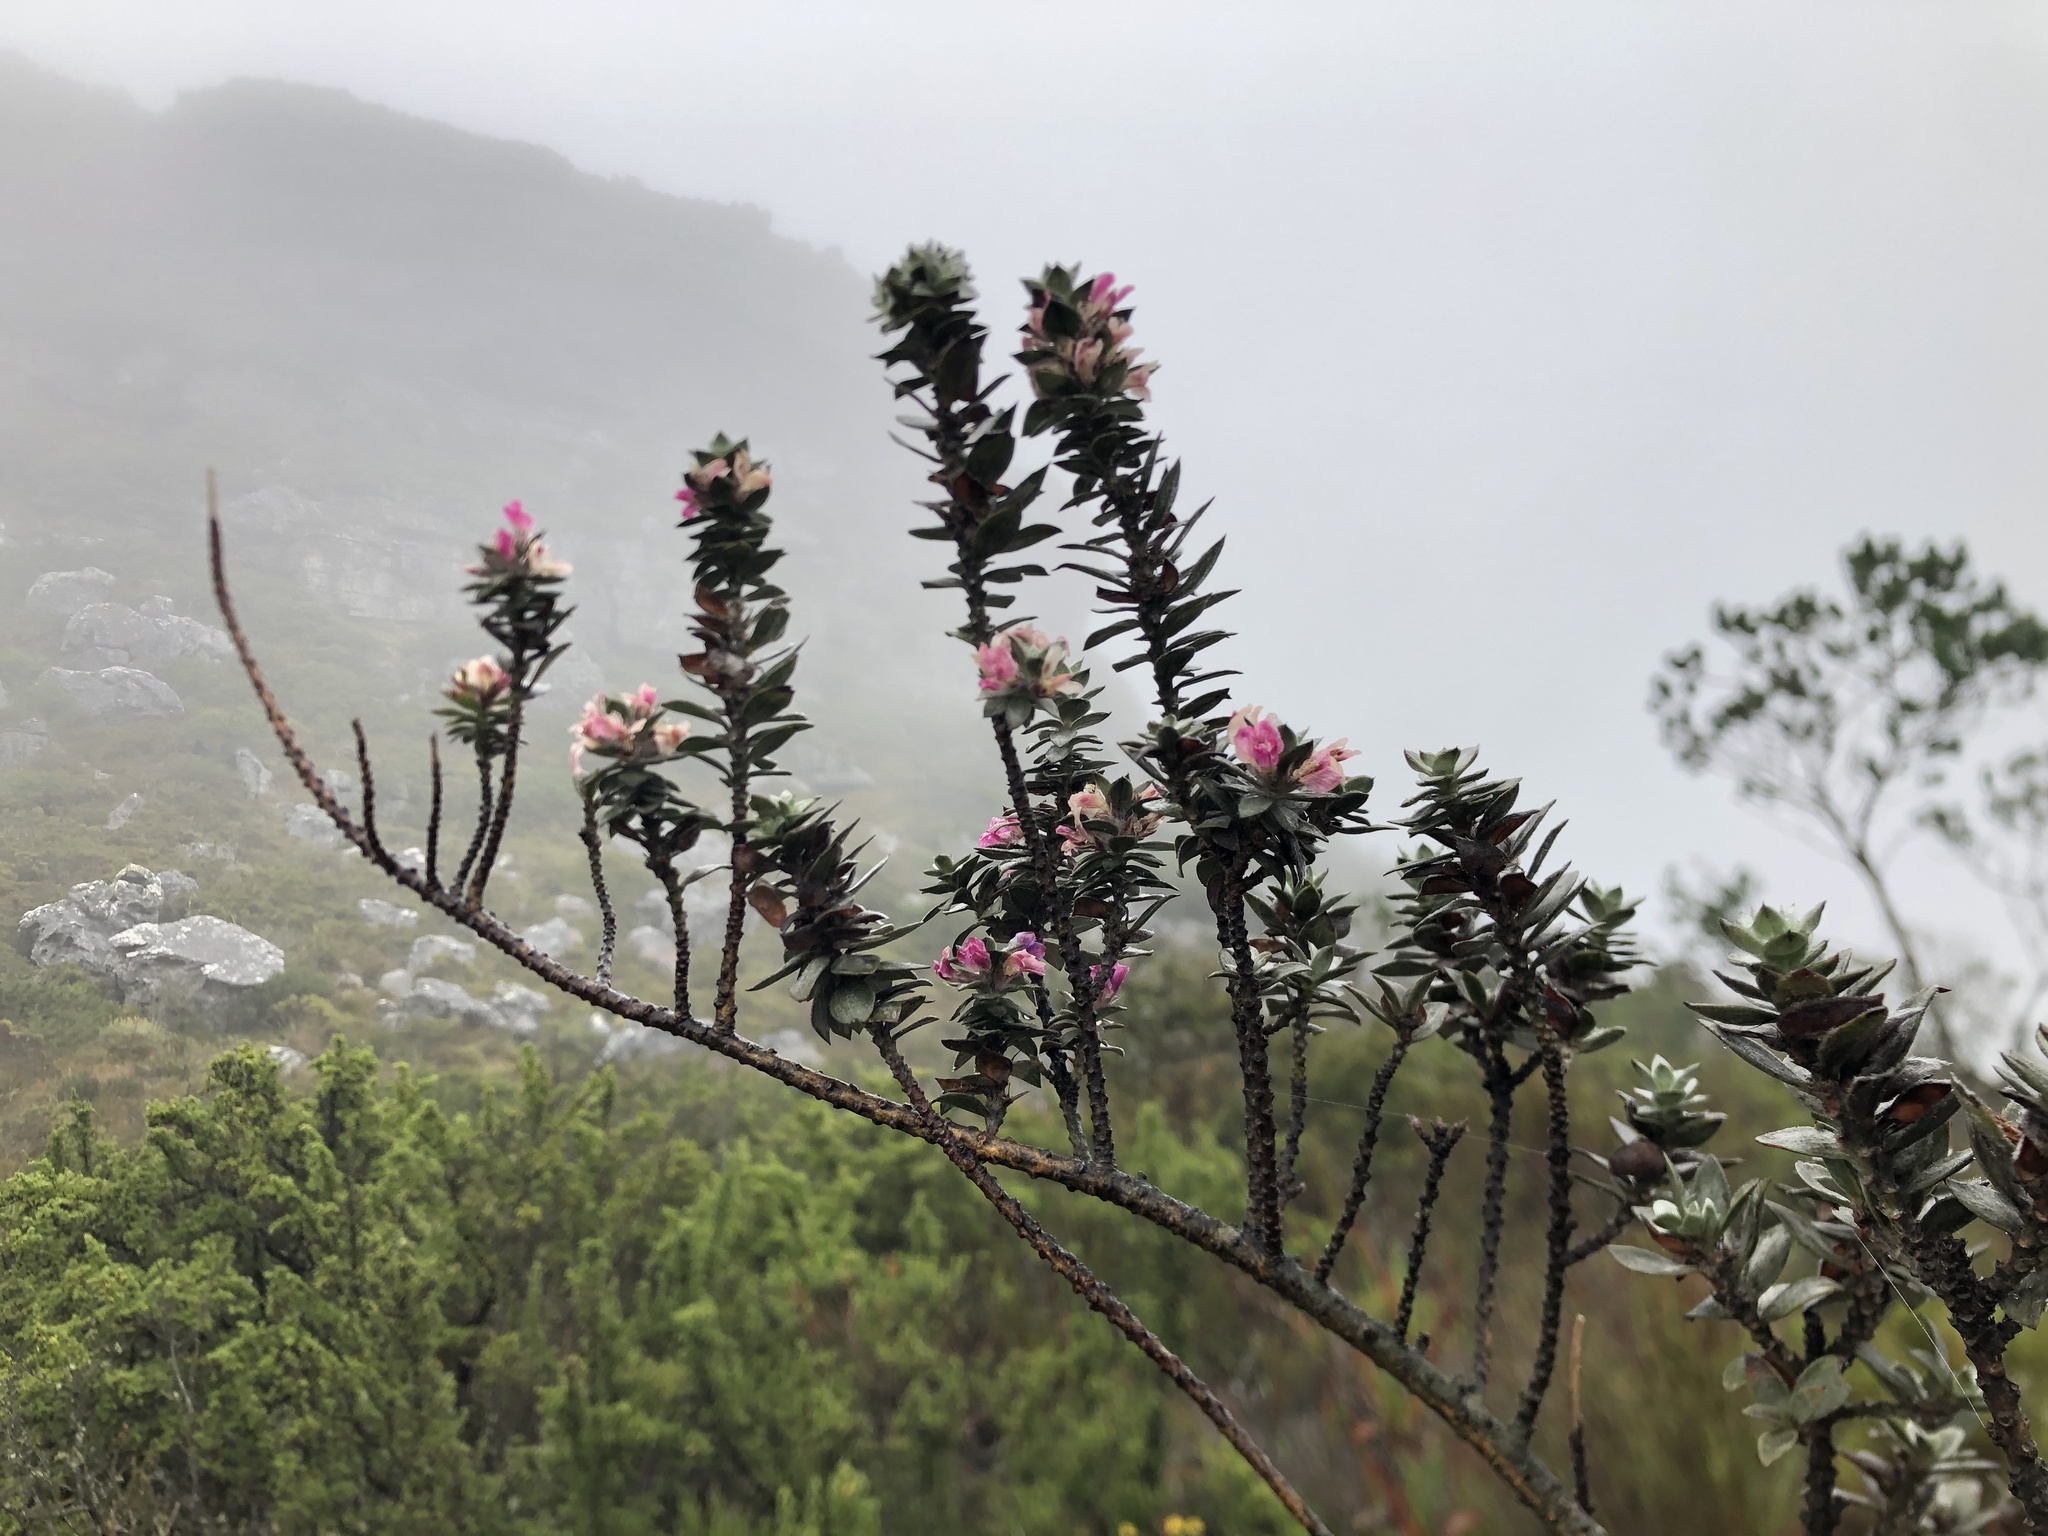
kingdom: Plantae
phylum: Tracheophyta
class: Magnoliopsida
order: Fabales
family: Fabaceae
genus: Amphithalea
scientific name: Amphithalea imbricata
